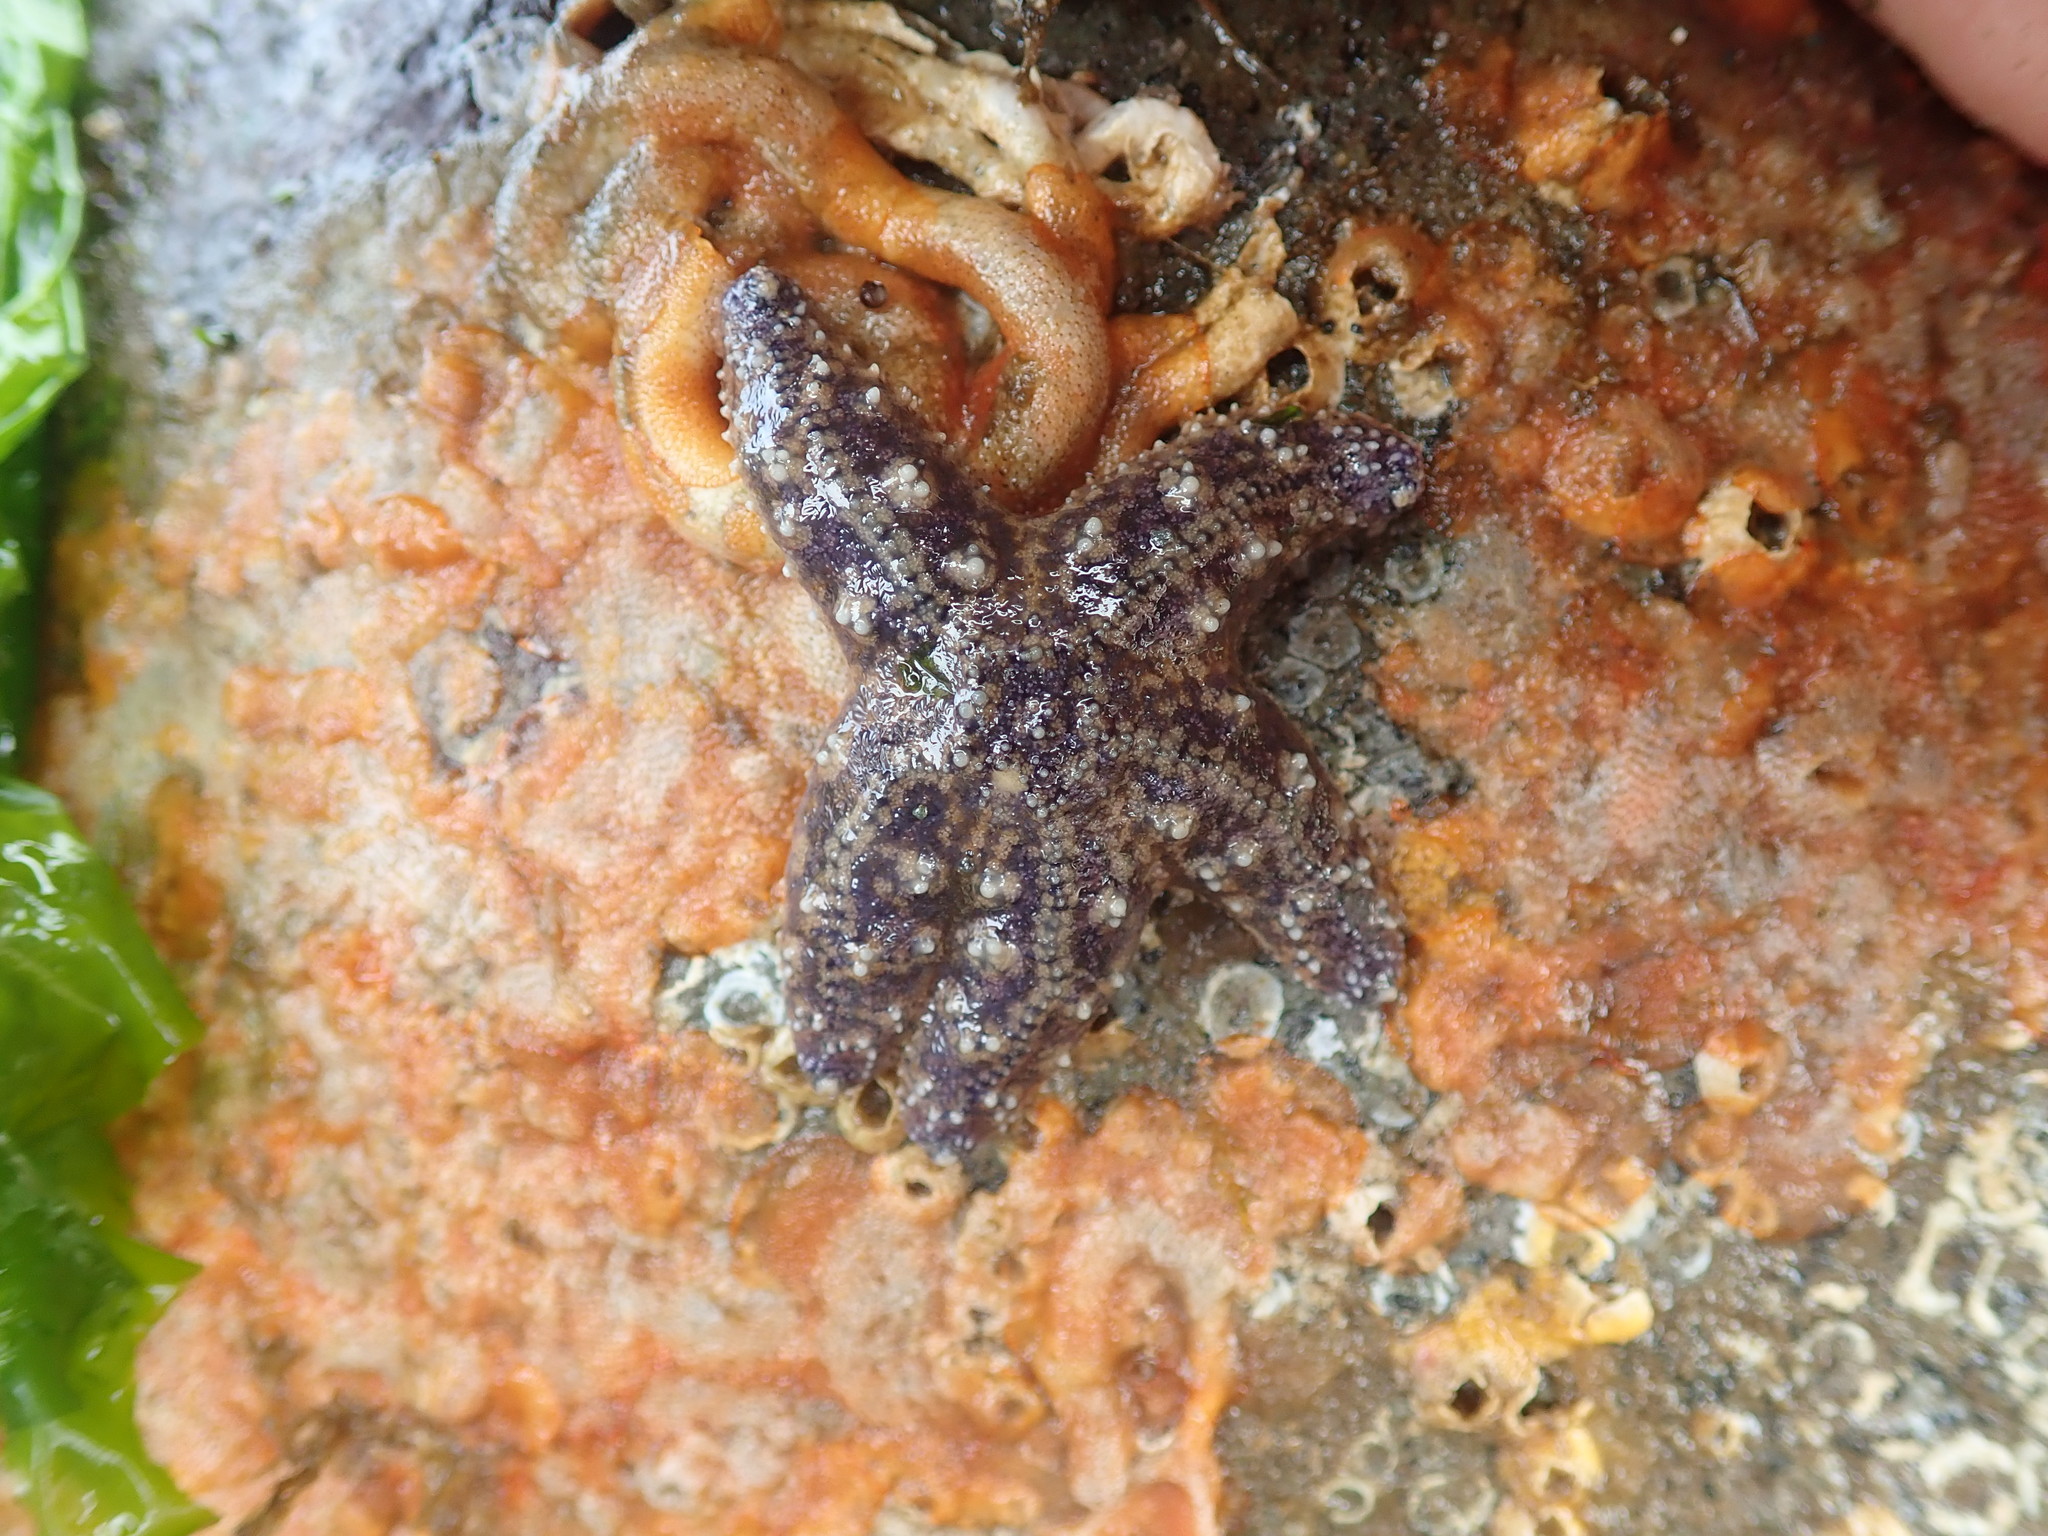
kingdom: Animalia
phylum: Echinodermata
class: Asteroidea
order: Forcipulatida
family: Asteriidae
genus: Pisaster
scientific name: Pisaster ochraceus
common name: Ochre stars
